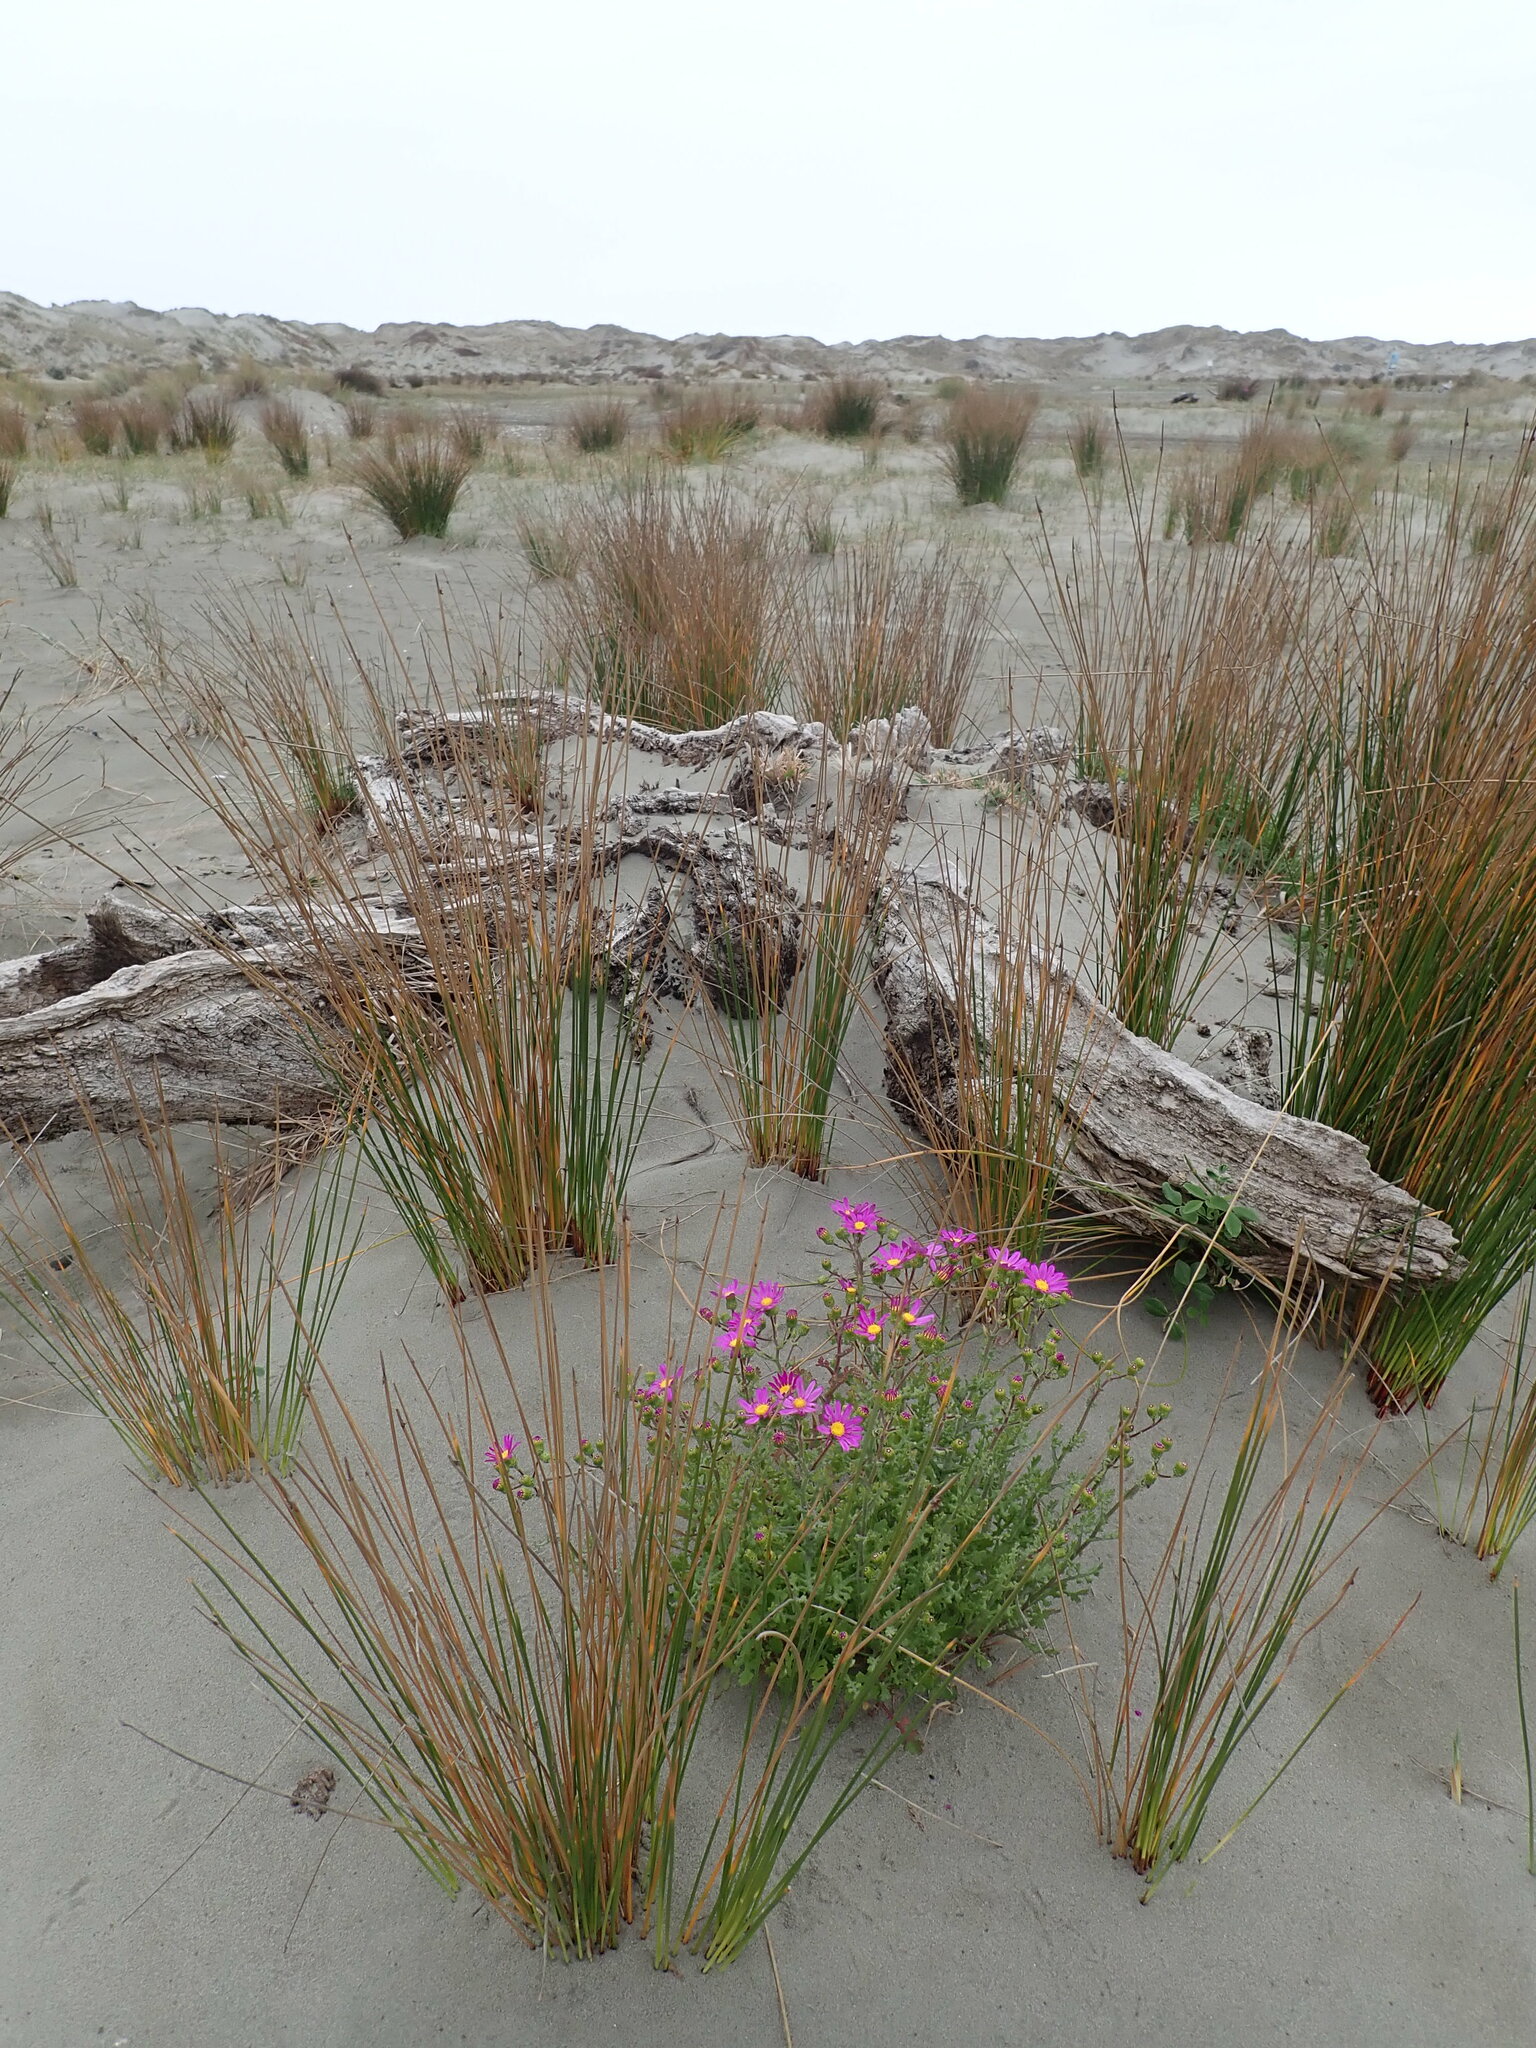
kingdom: Plantae
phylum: Tracheophyta
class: Magnoliopsida
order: Asterales
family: Asteraceae
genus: Senecio
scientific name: Senecio elegans
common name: Purple groundsel
